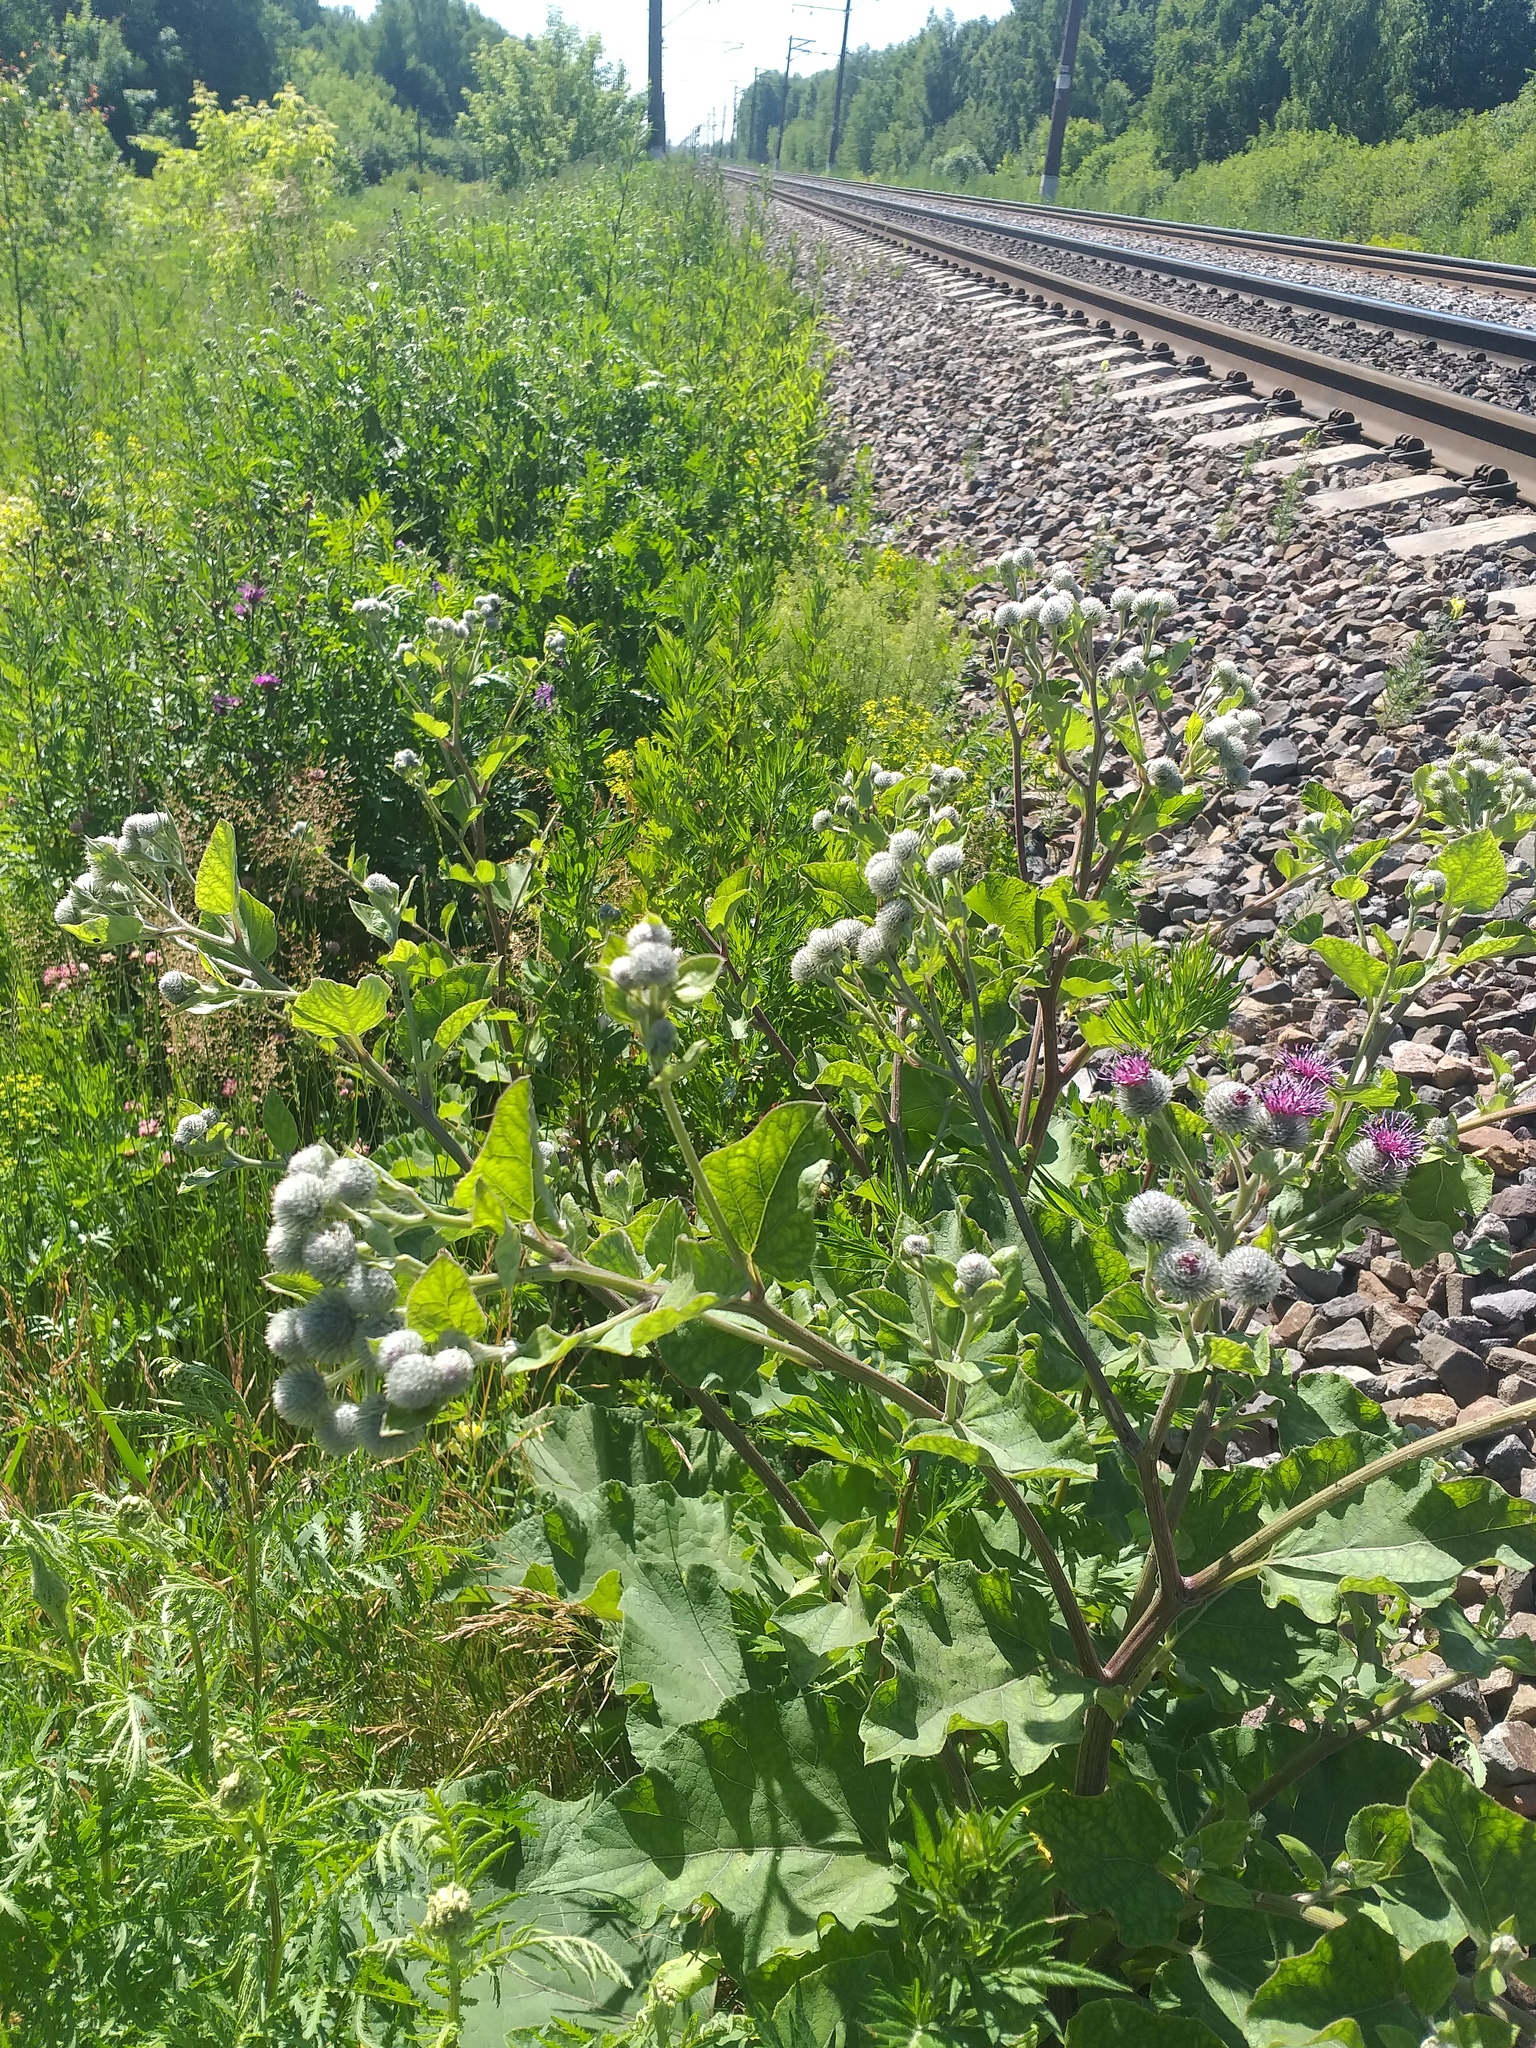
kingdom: Plantae
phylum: Tracheophyta
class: Magnoliopsida
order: Asterales
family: Asteraceae
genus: Arctium
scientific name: Arctium tomentosum
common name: Woolly burdock
